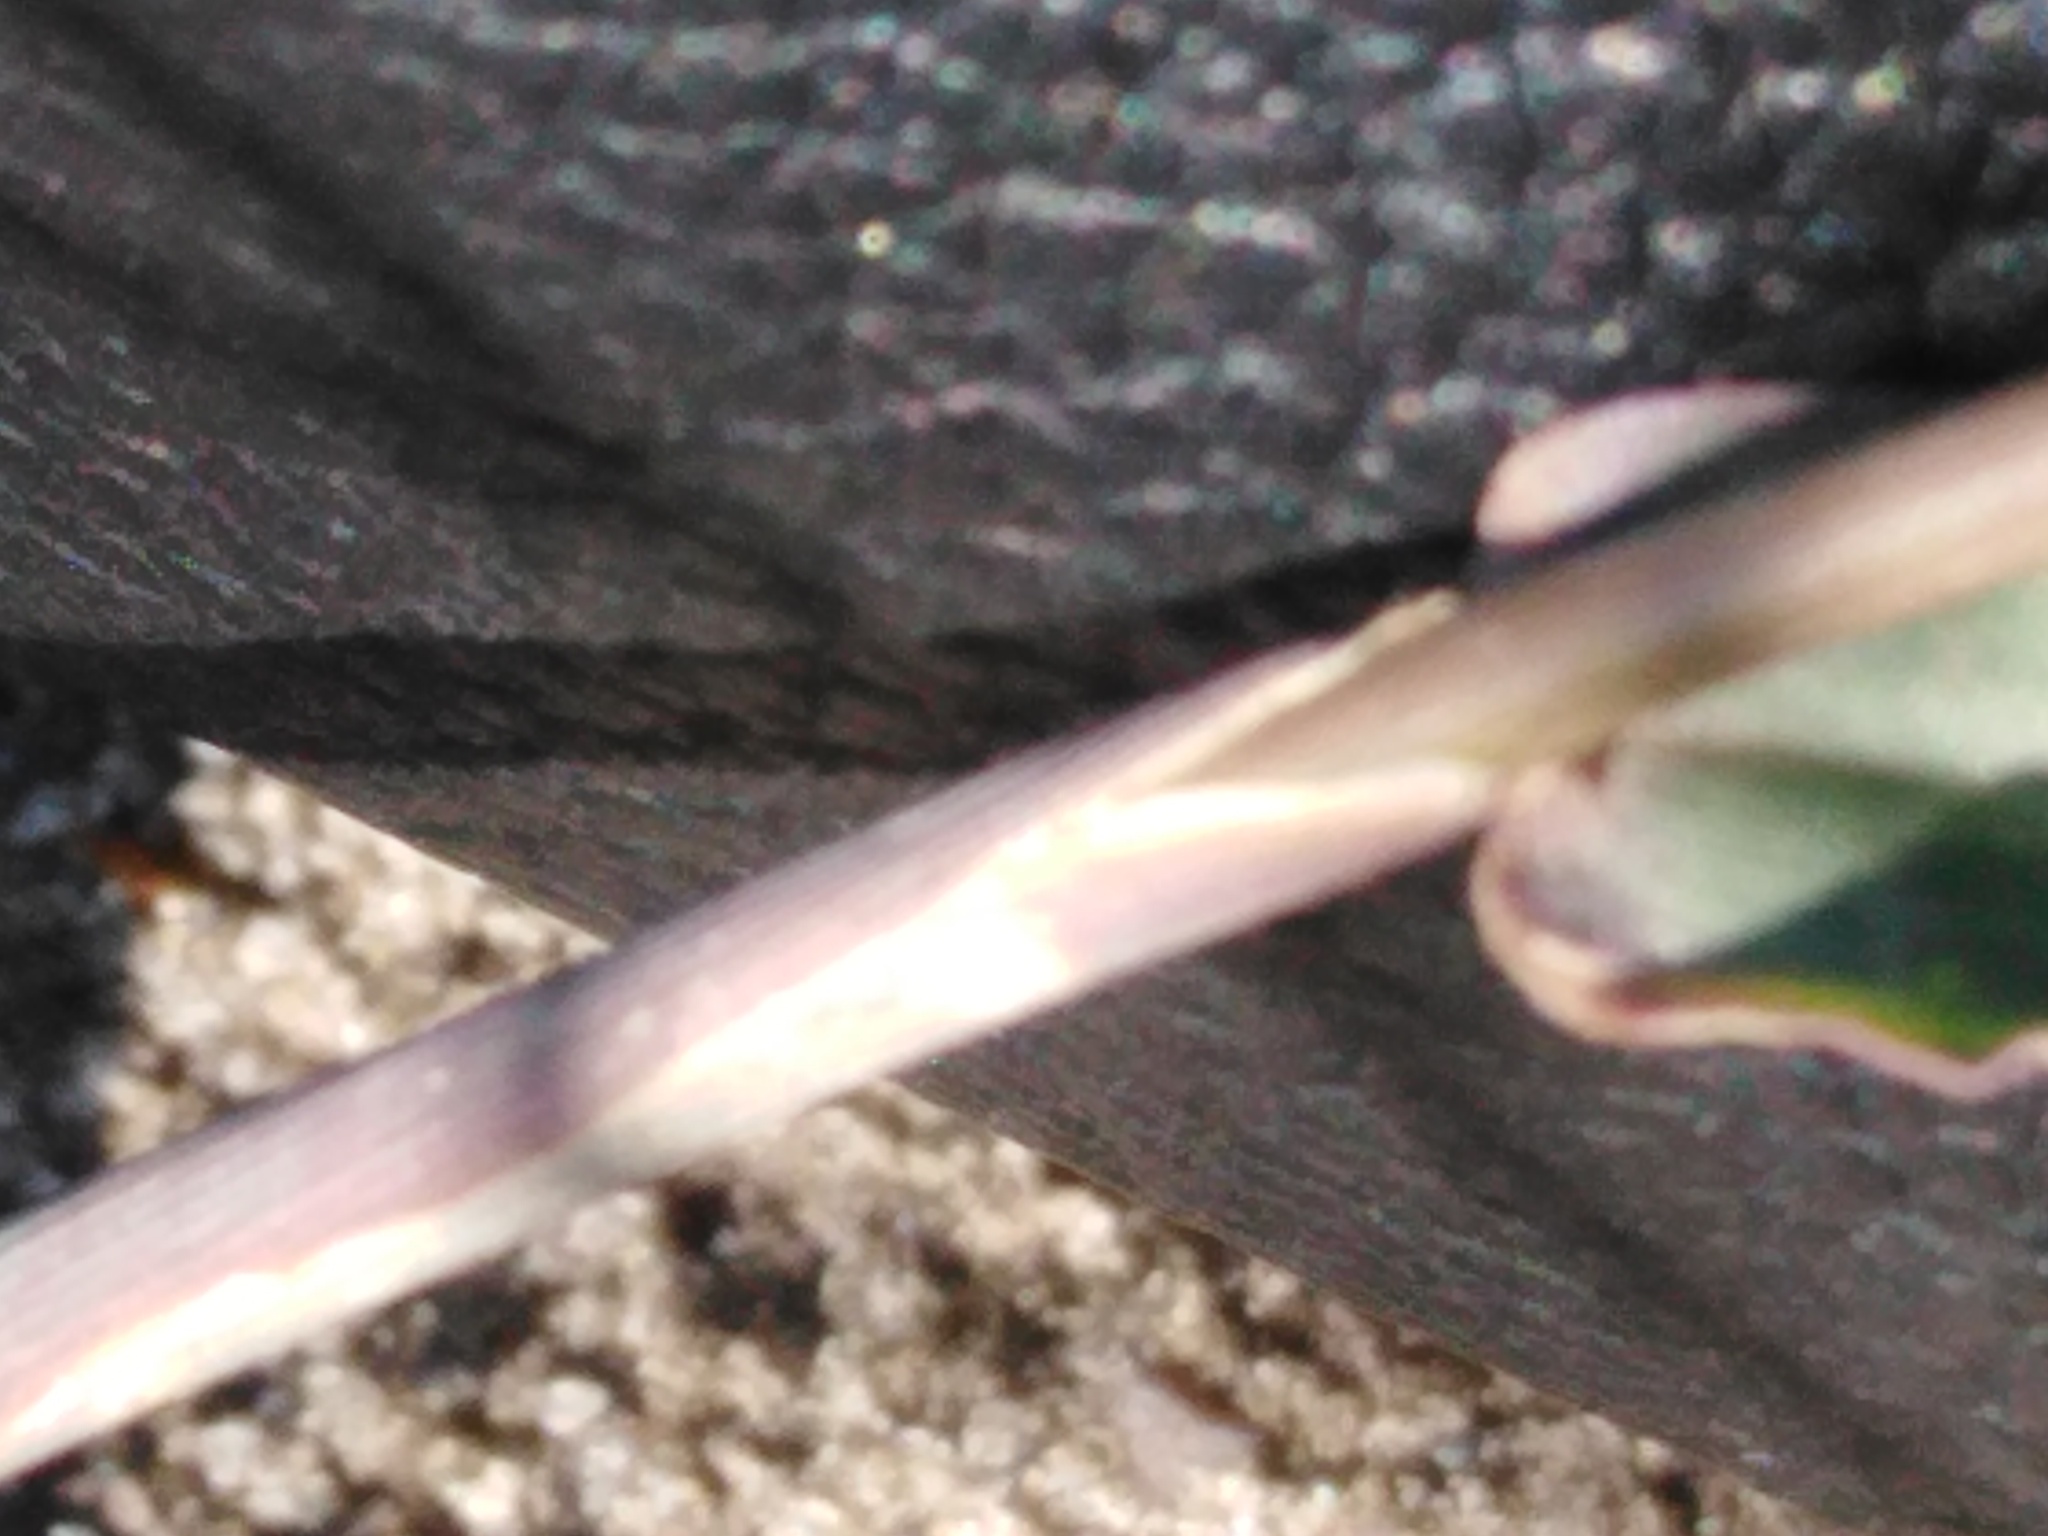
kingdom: Plantae
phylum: Tracheophyta
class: Liliopsida
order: Poales
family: Poaceae
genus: Digitaria
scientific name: Digitaria ischaemum
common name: Smooth crabgrass
